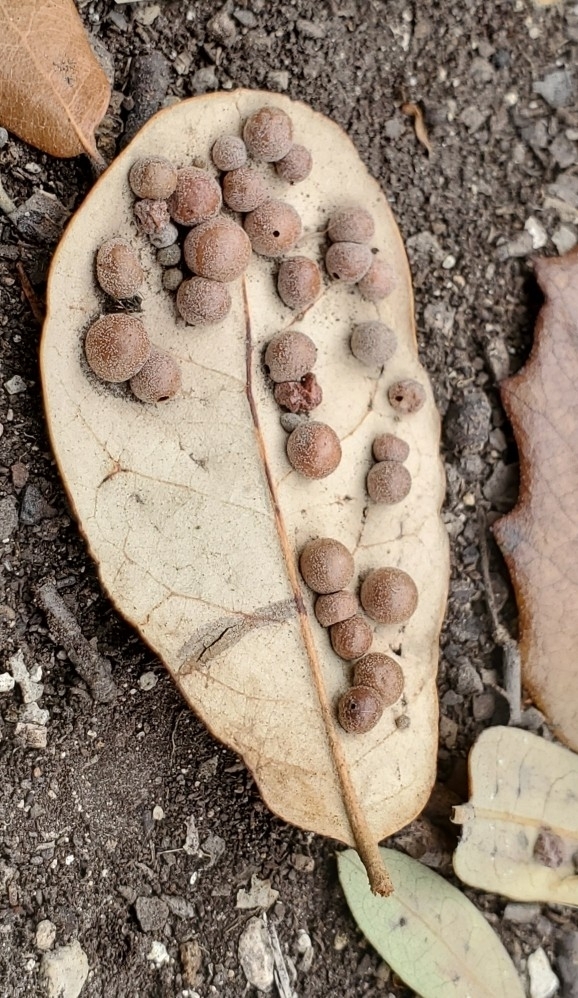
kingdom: Animalia
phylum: Arthropoda
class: Insecta
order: Hymenoptera
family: Cynipidae
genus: Belonocnema
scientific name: Belonocnema kinseyi
